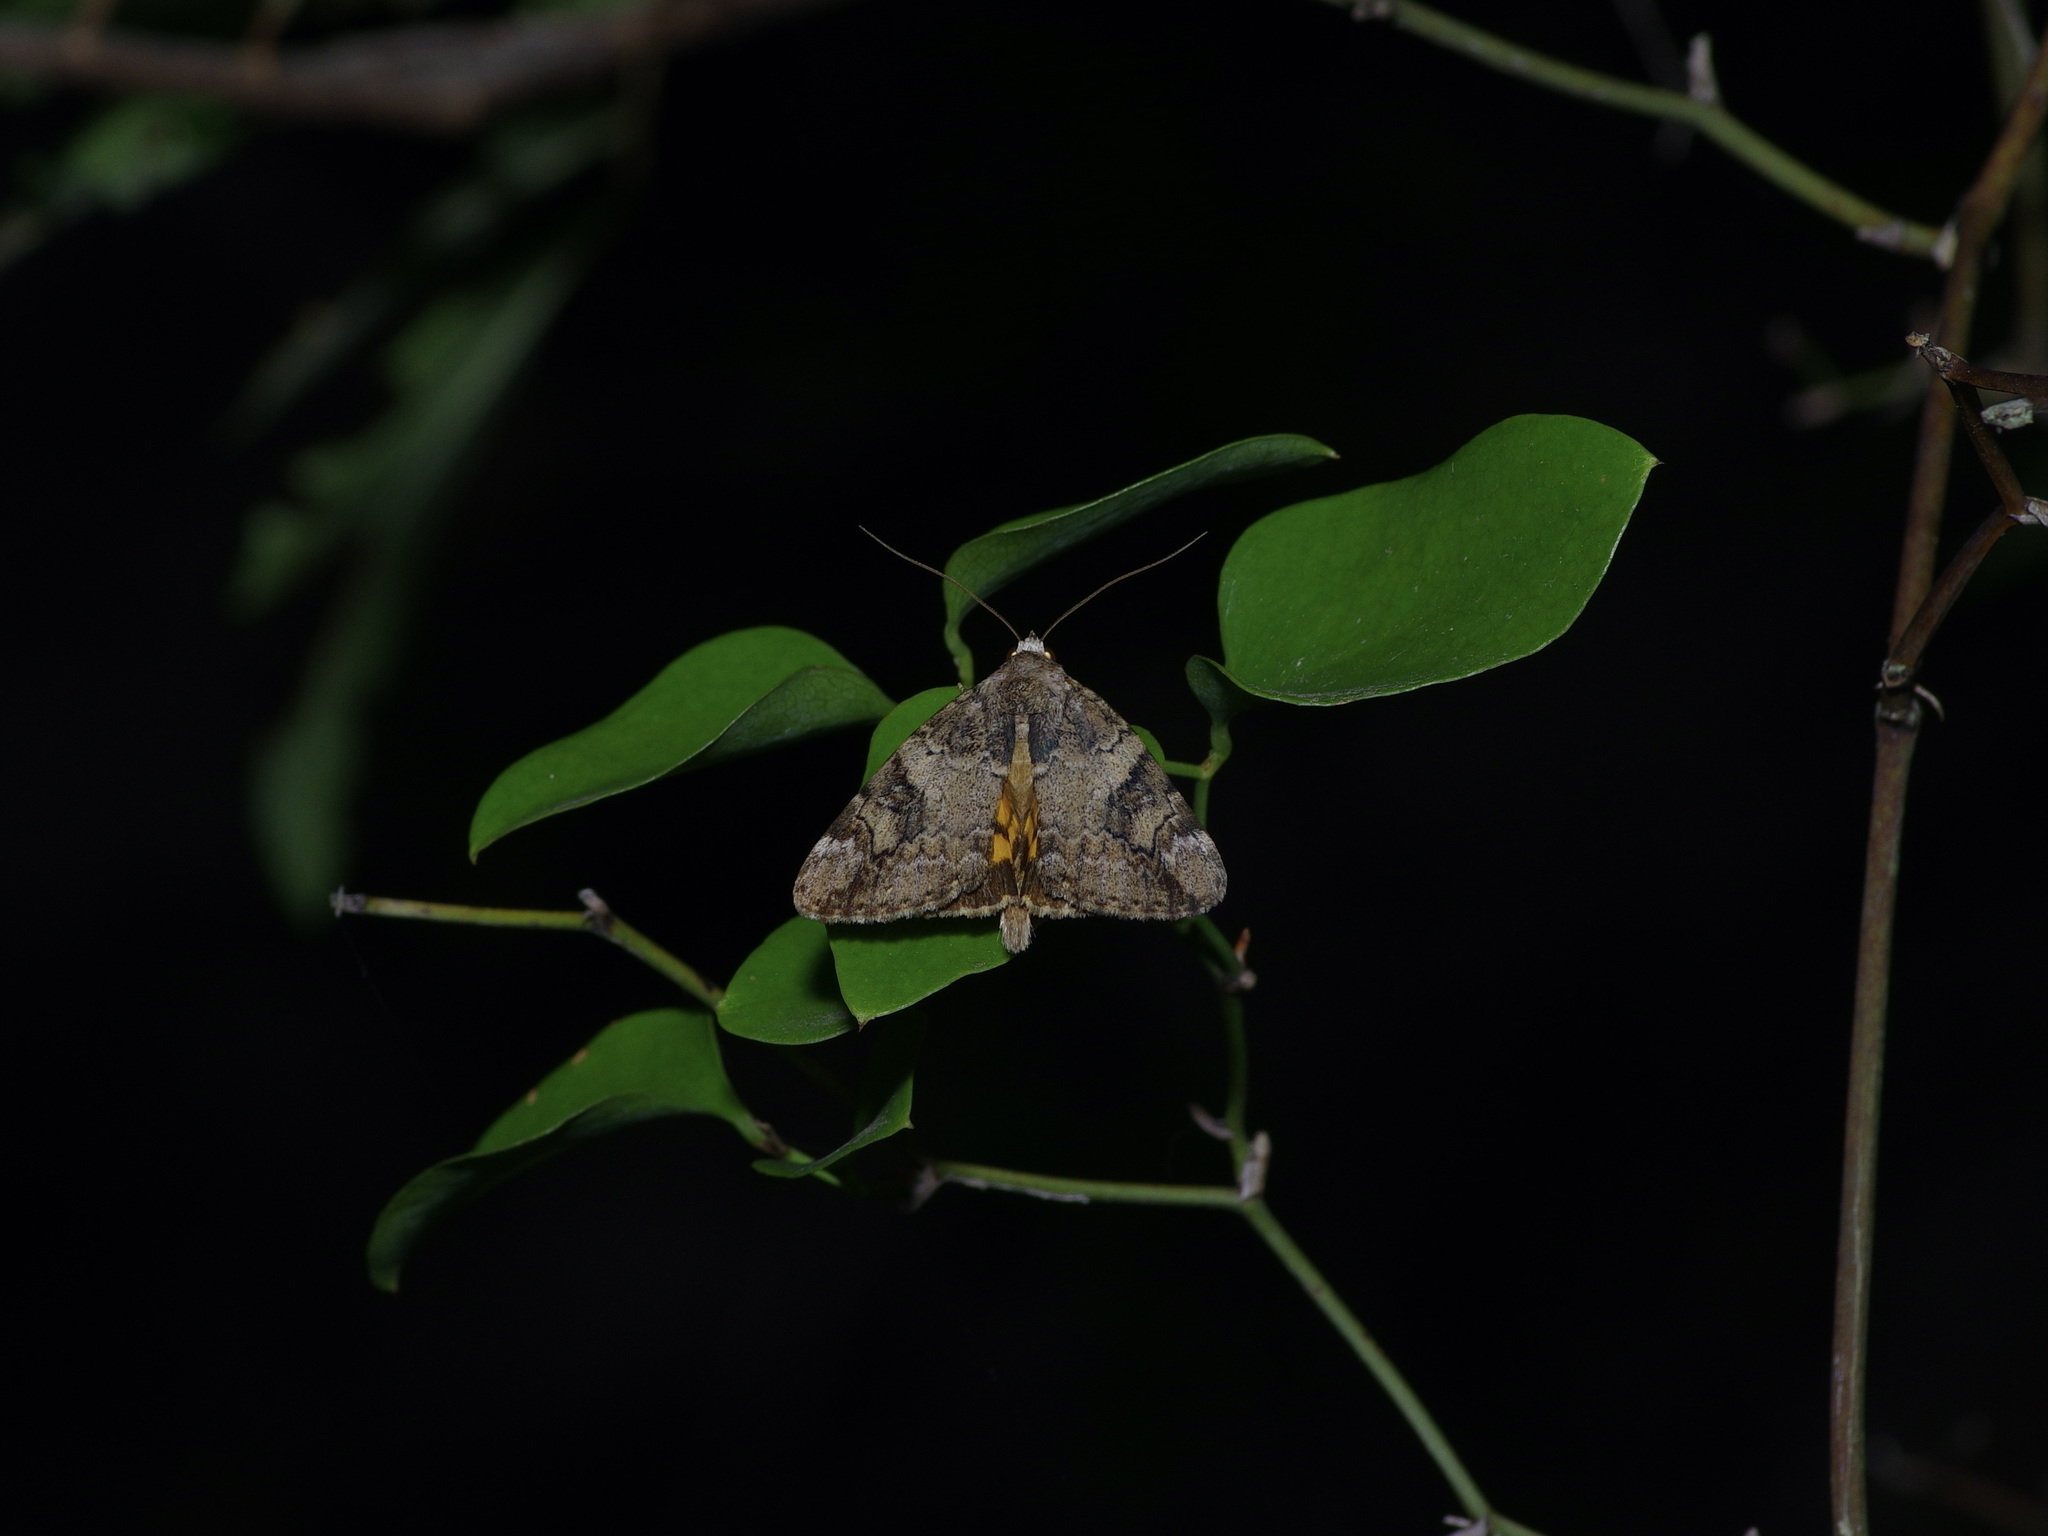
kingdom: Animalia
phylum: Arthropoda
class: Insecta
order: Lepidoptera
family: Erebidae
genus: Catocala
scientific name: Catocala micronympha
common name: Little nymph underwing
